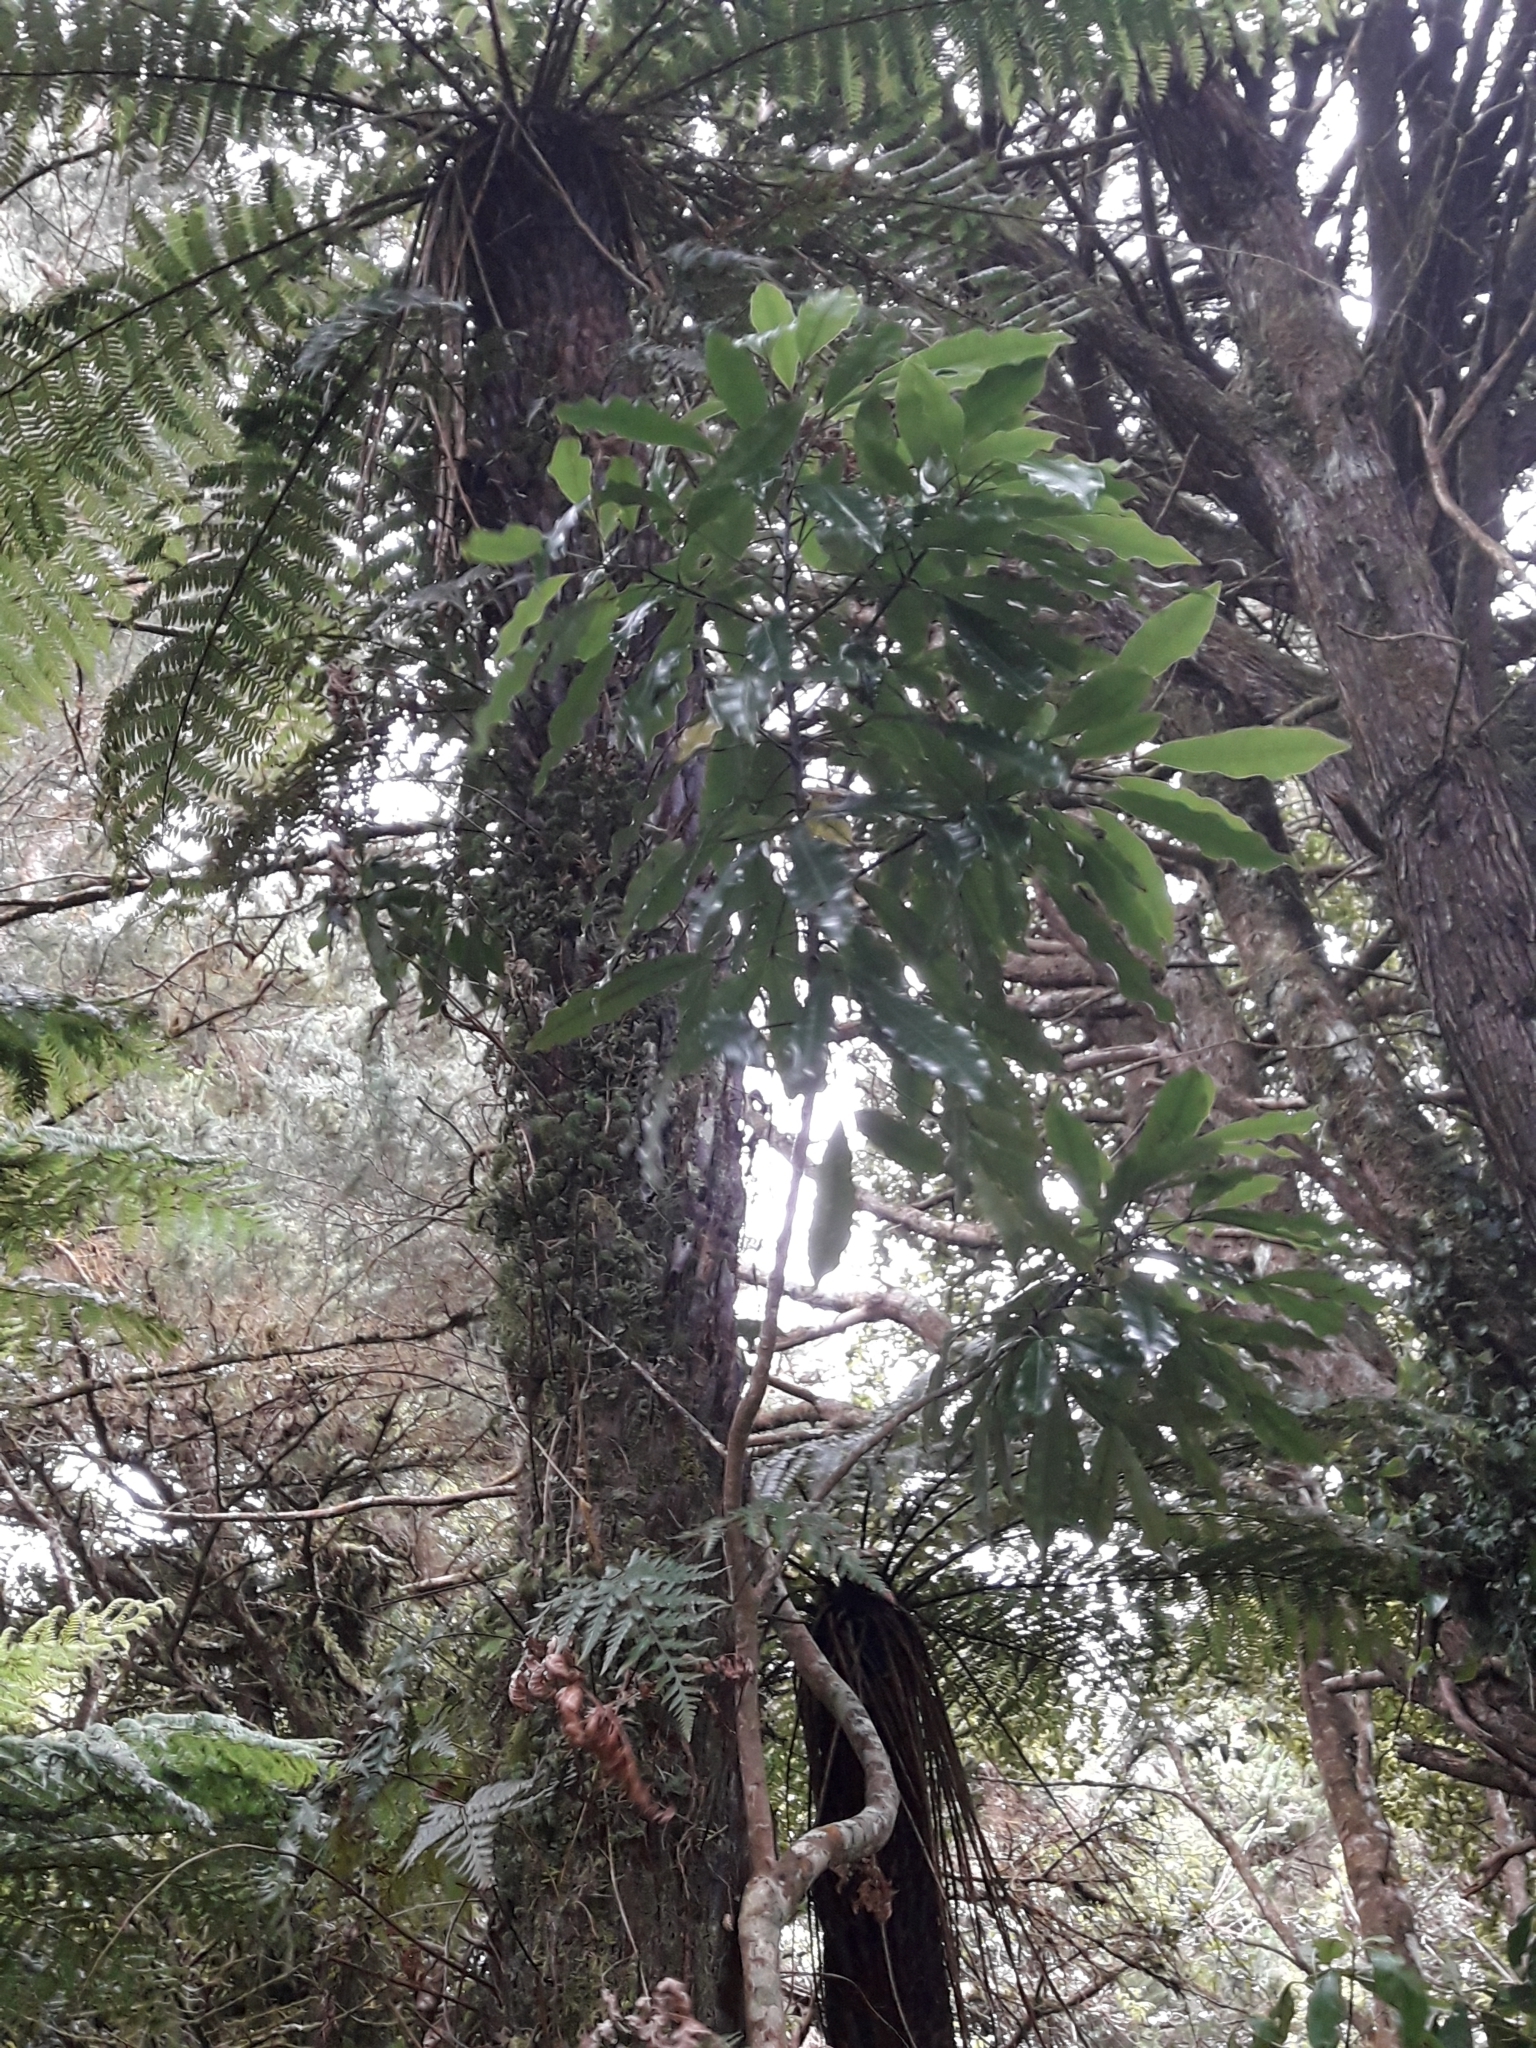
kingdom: Plantae
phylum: Tracheophyta
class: Magnoliopsida
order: Apiales
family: Araliaceae
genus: Raukaua
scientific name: Raukaua edgerleyi
